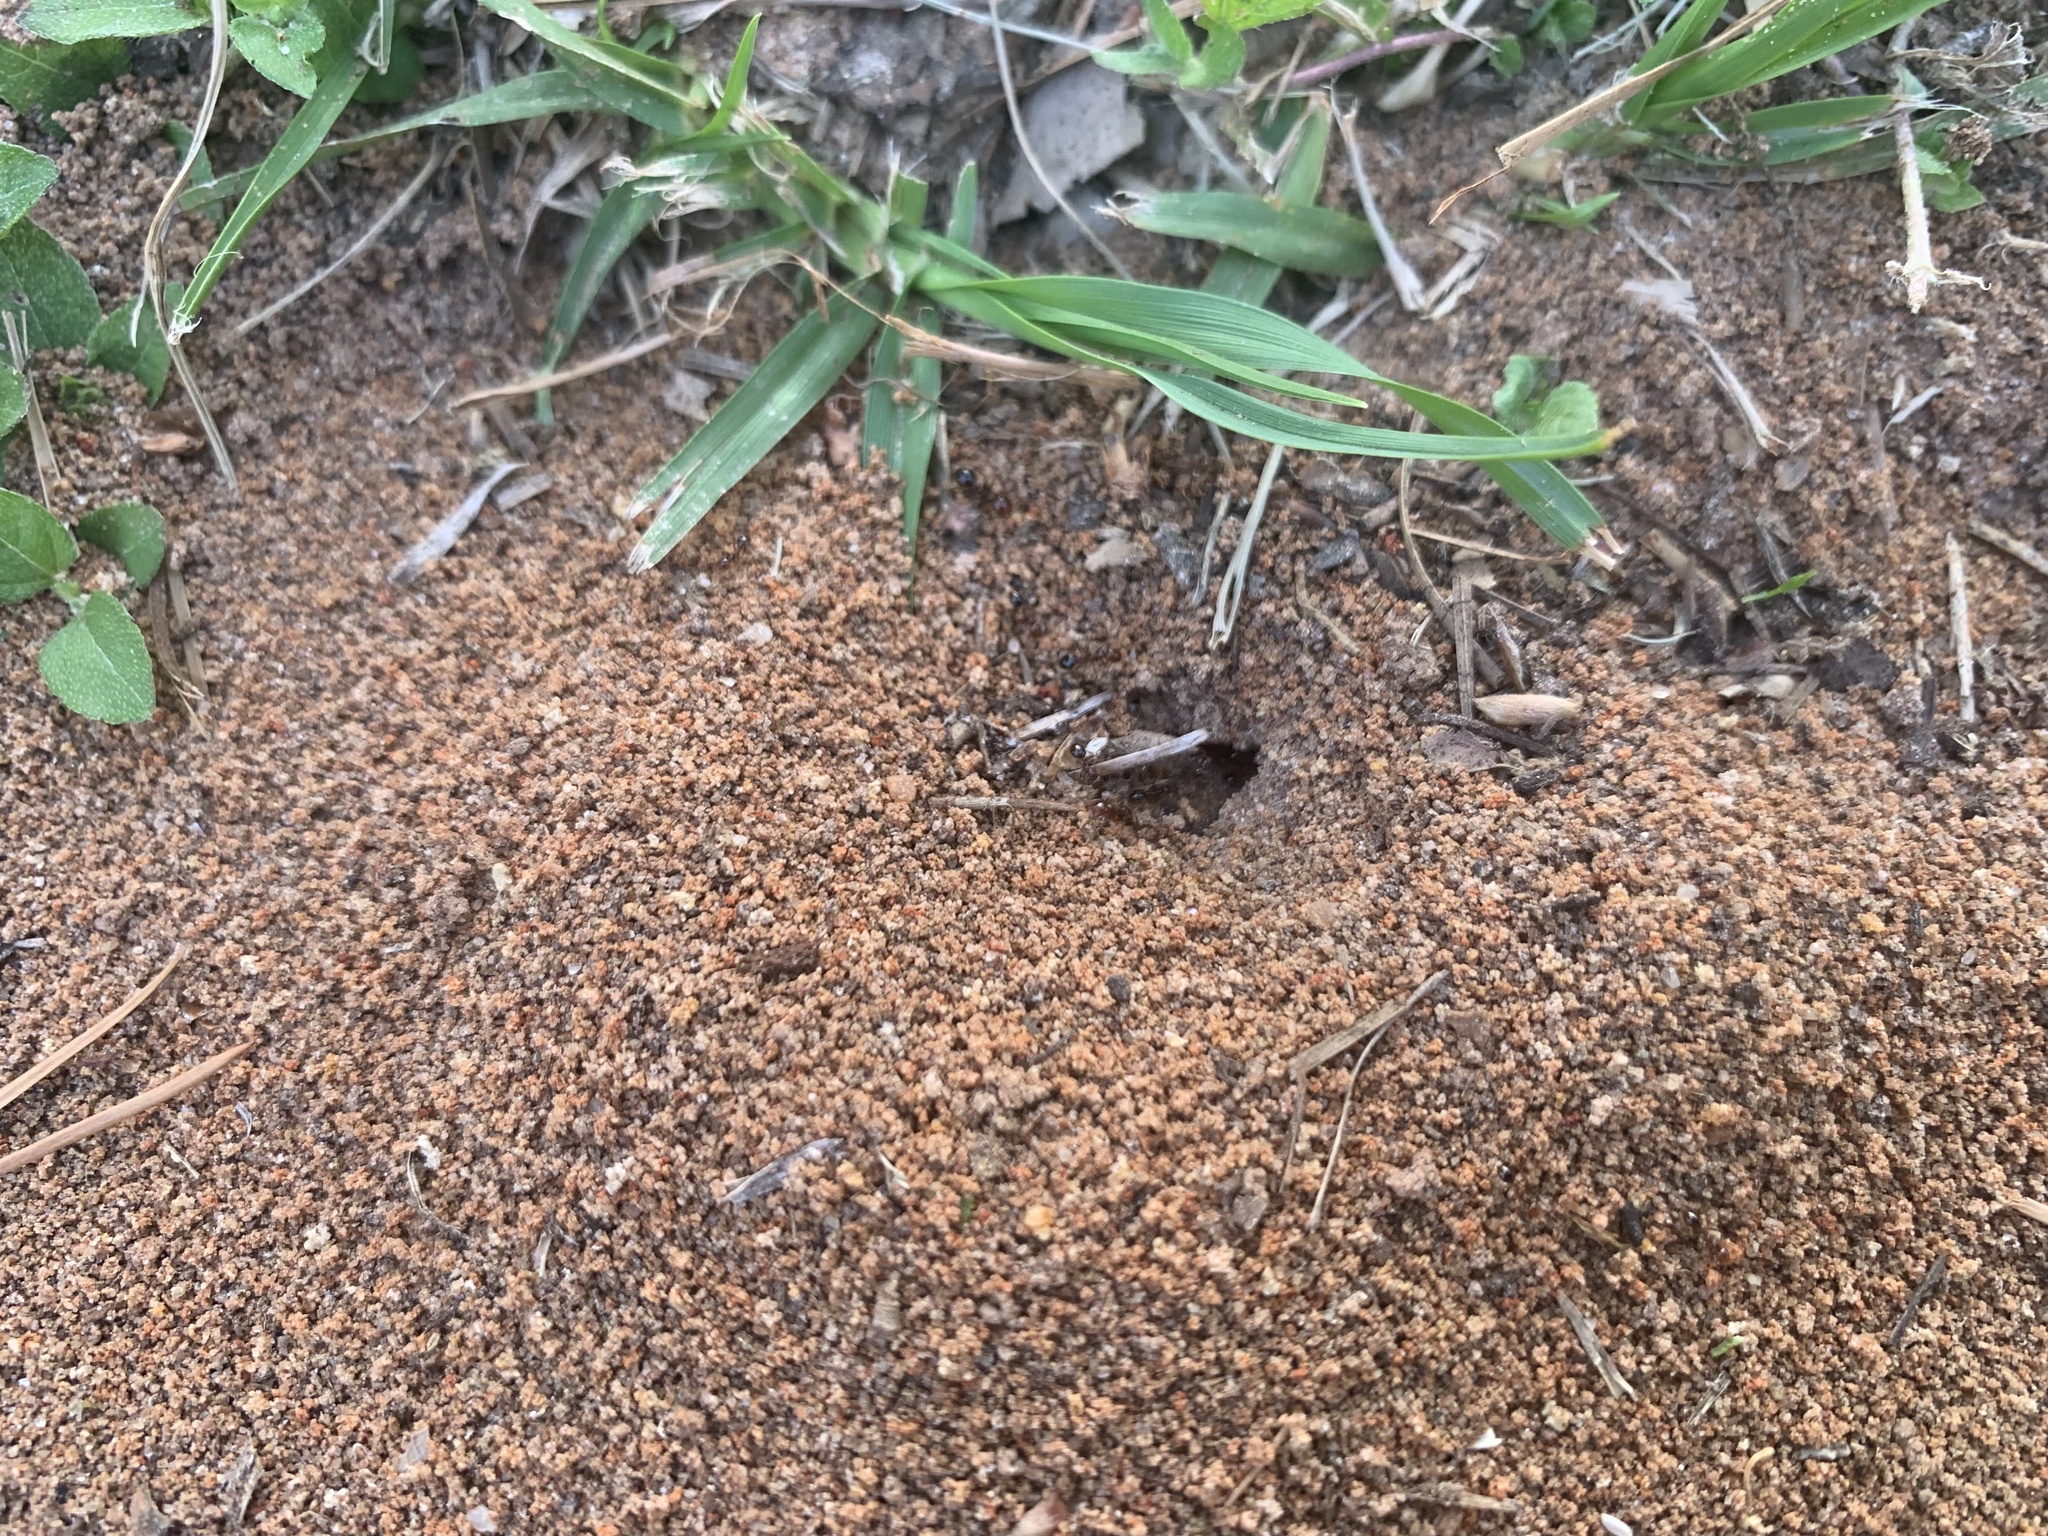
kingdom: Animalia
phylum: Arthropoda
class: Insecta
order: Hymenoptera
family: Formicidae
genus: Solenopsis
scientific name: Solenopsis invicta
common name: Red imported fire ant
